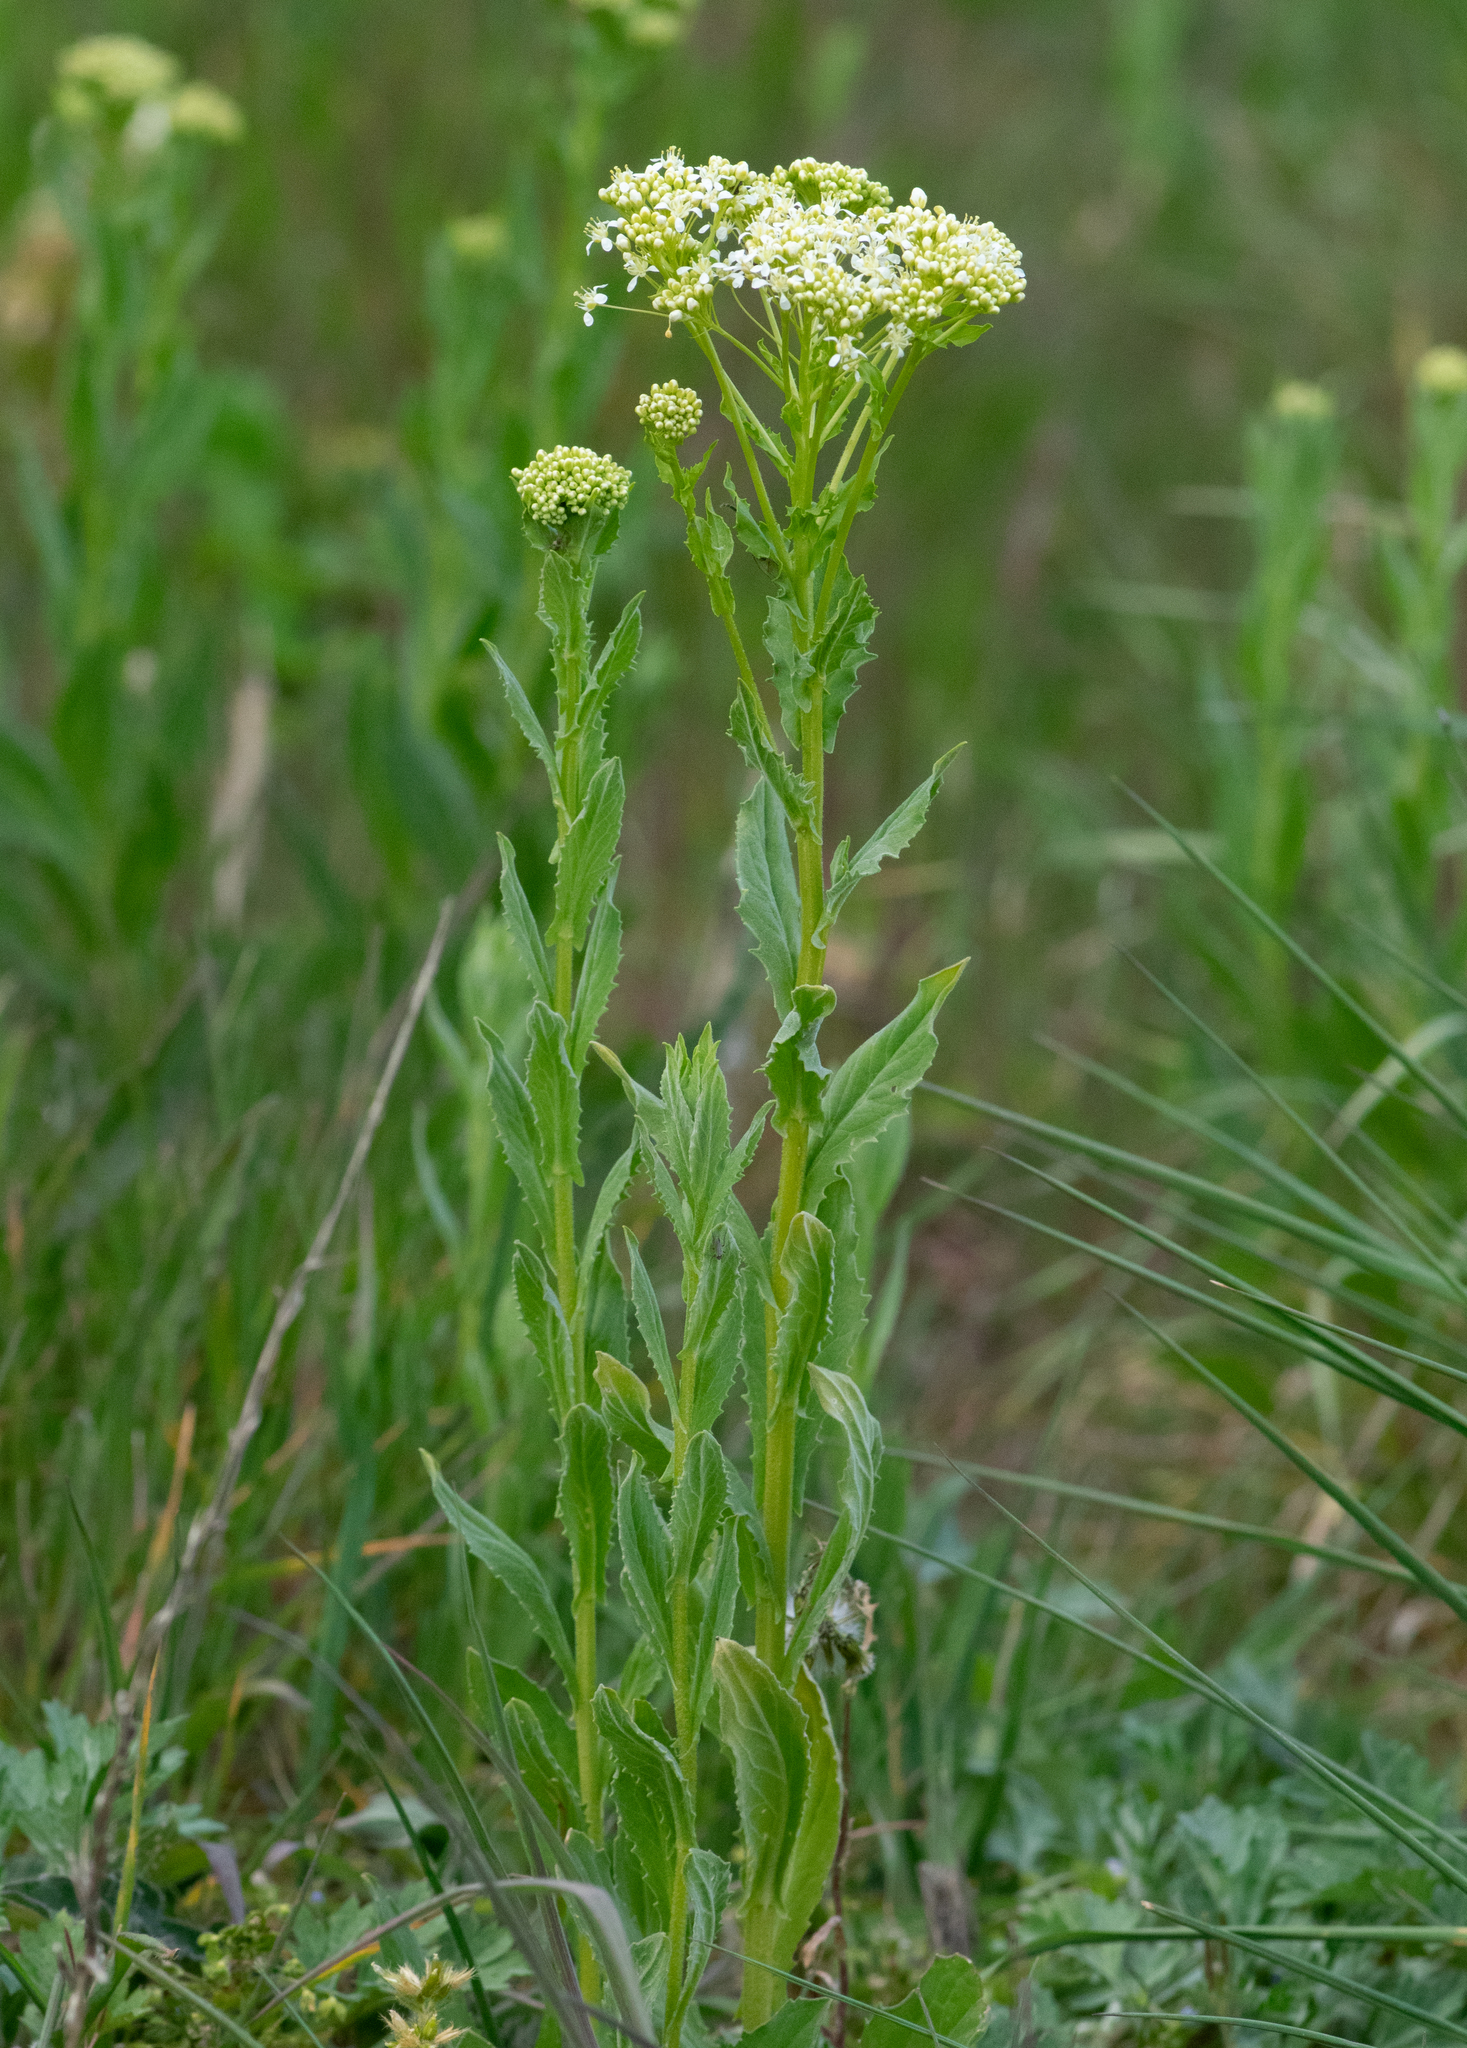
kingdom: Plantae
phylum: Tracheophyta
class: Magnoliopsida
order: Brassicales
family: Brassicaceae
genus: Lepidium
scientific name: Lepidium draba
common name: Hoary cress
